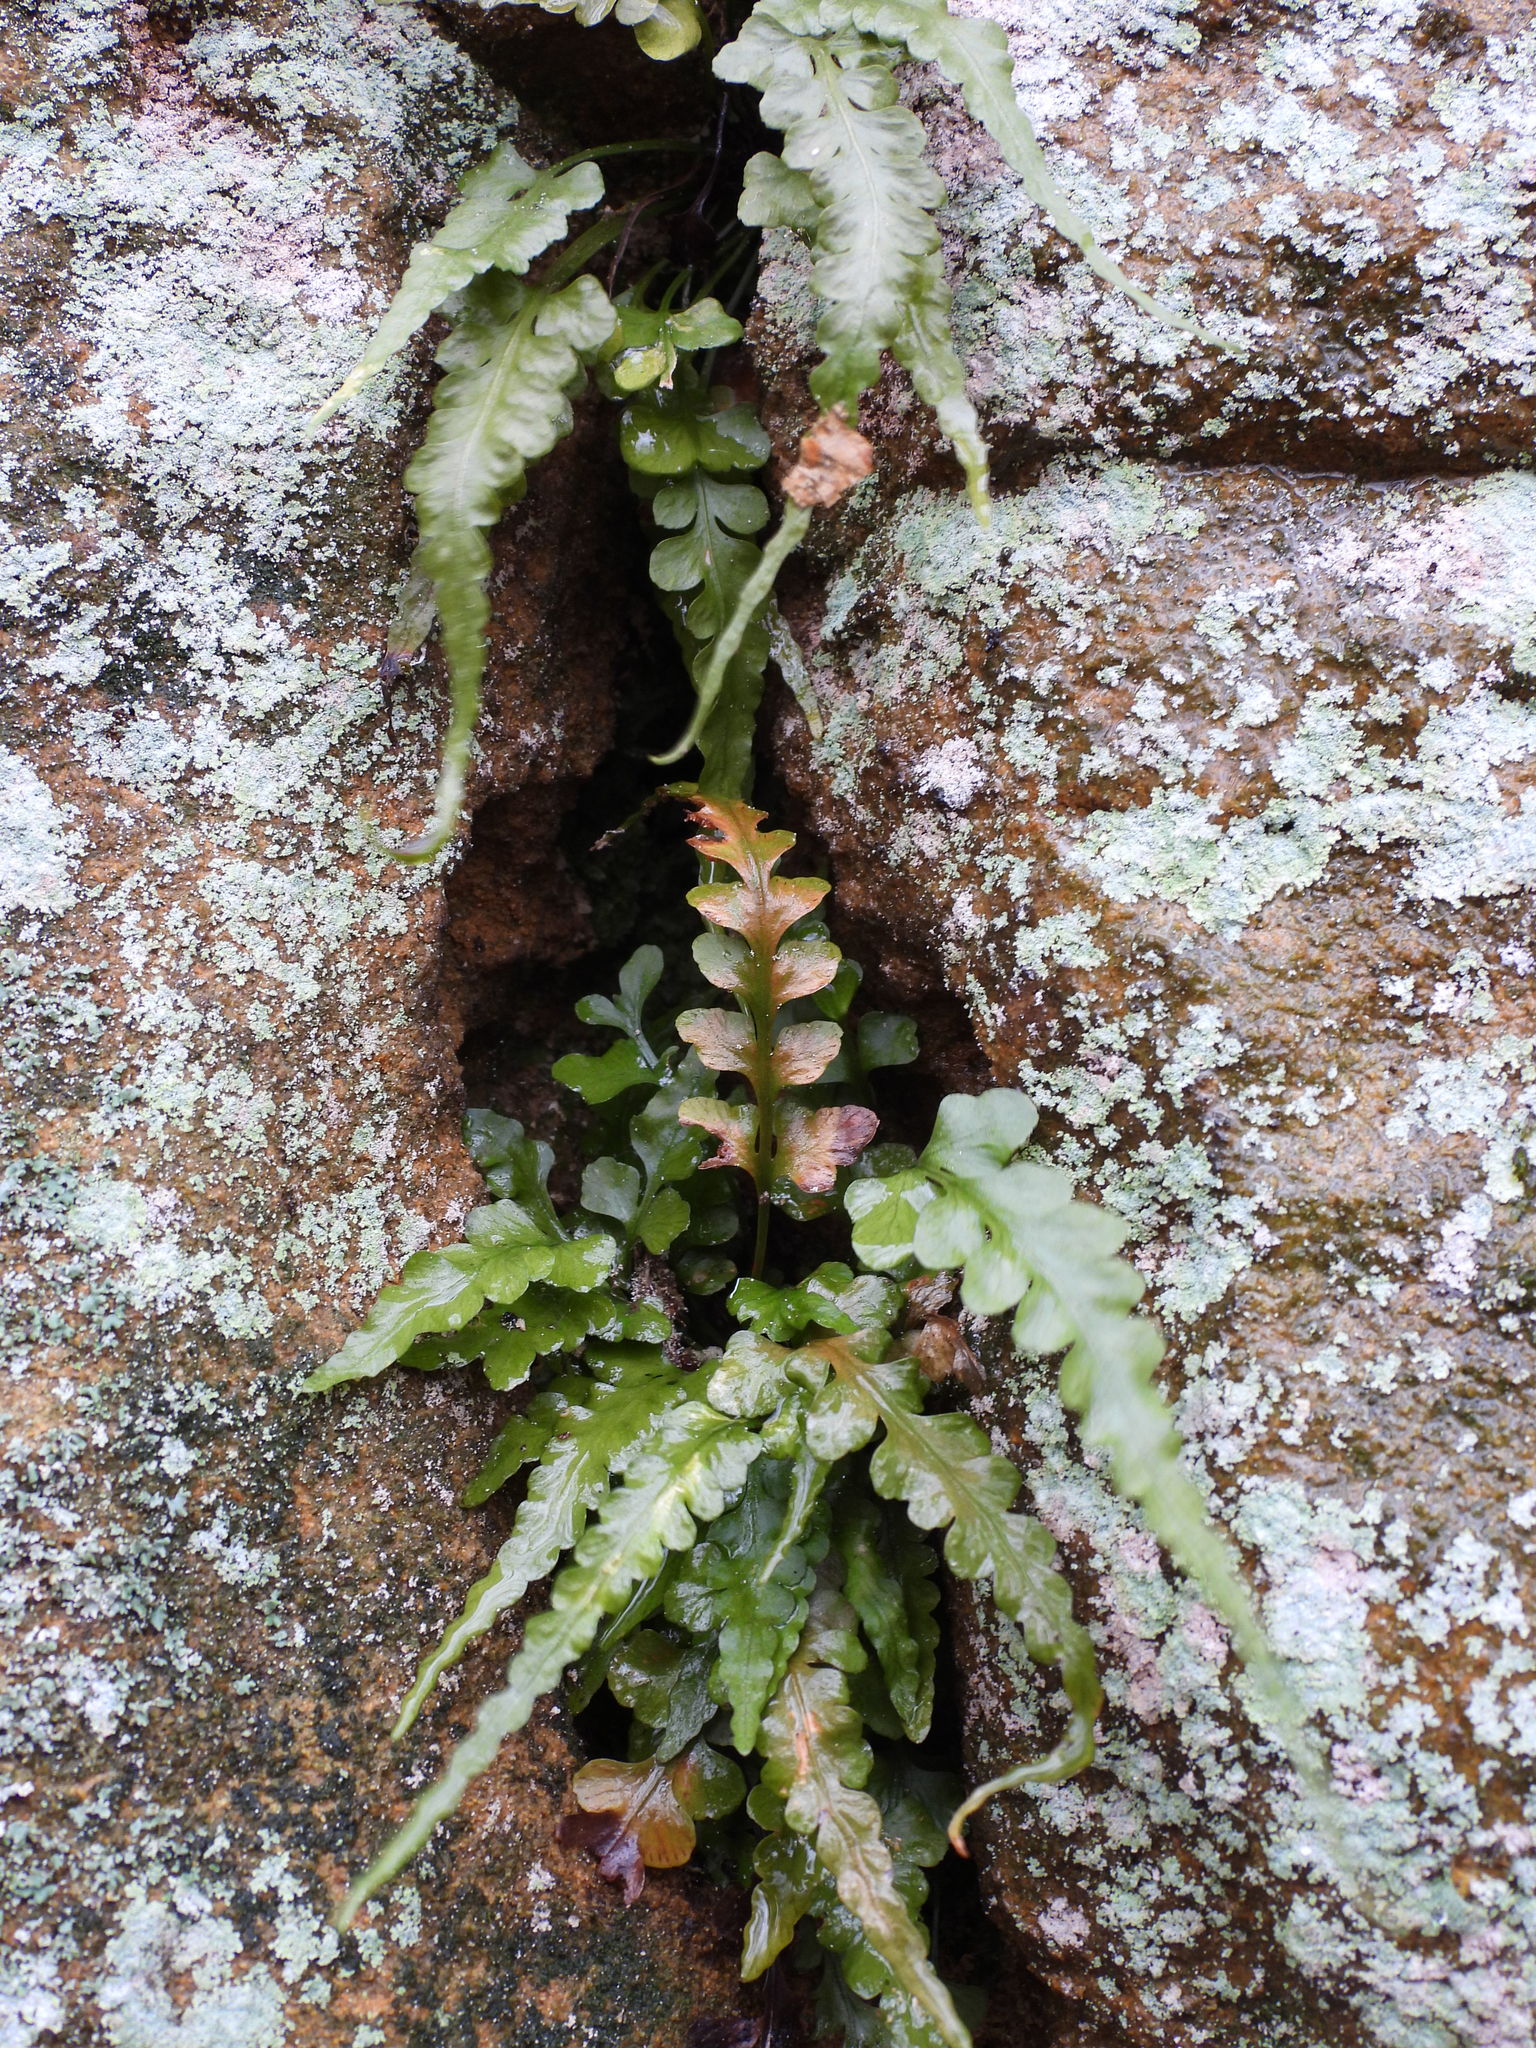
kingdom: Plantae
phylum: Tracheophyta
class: Polypodiopsida
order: Polypodiales
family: Aspleniaceae
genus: Asplenium
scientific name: Asplenium pinnatifidum
